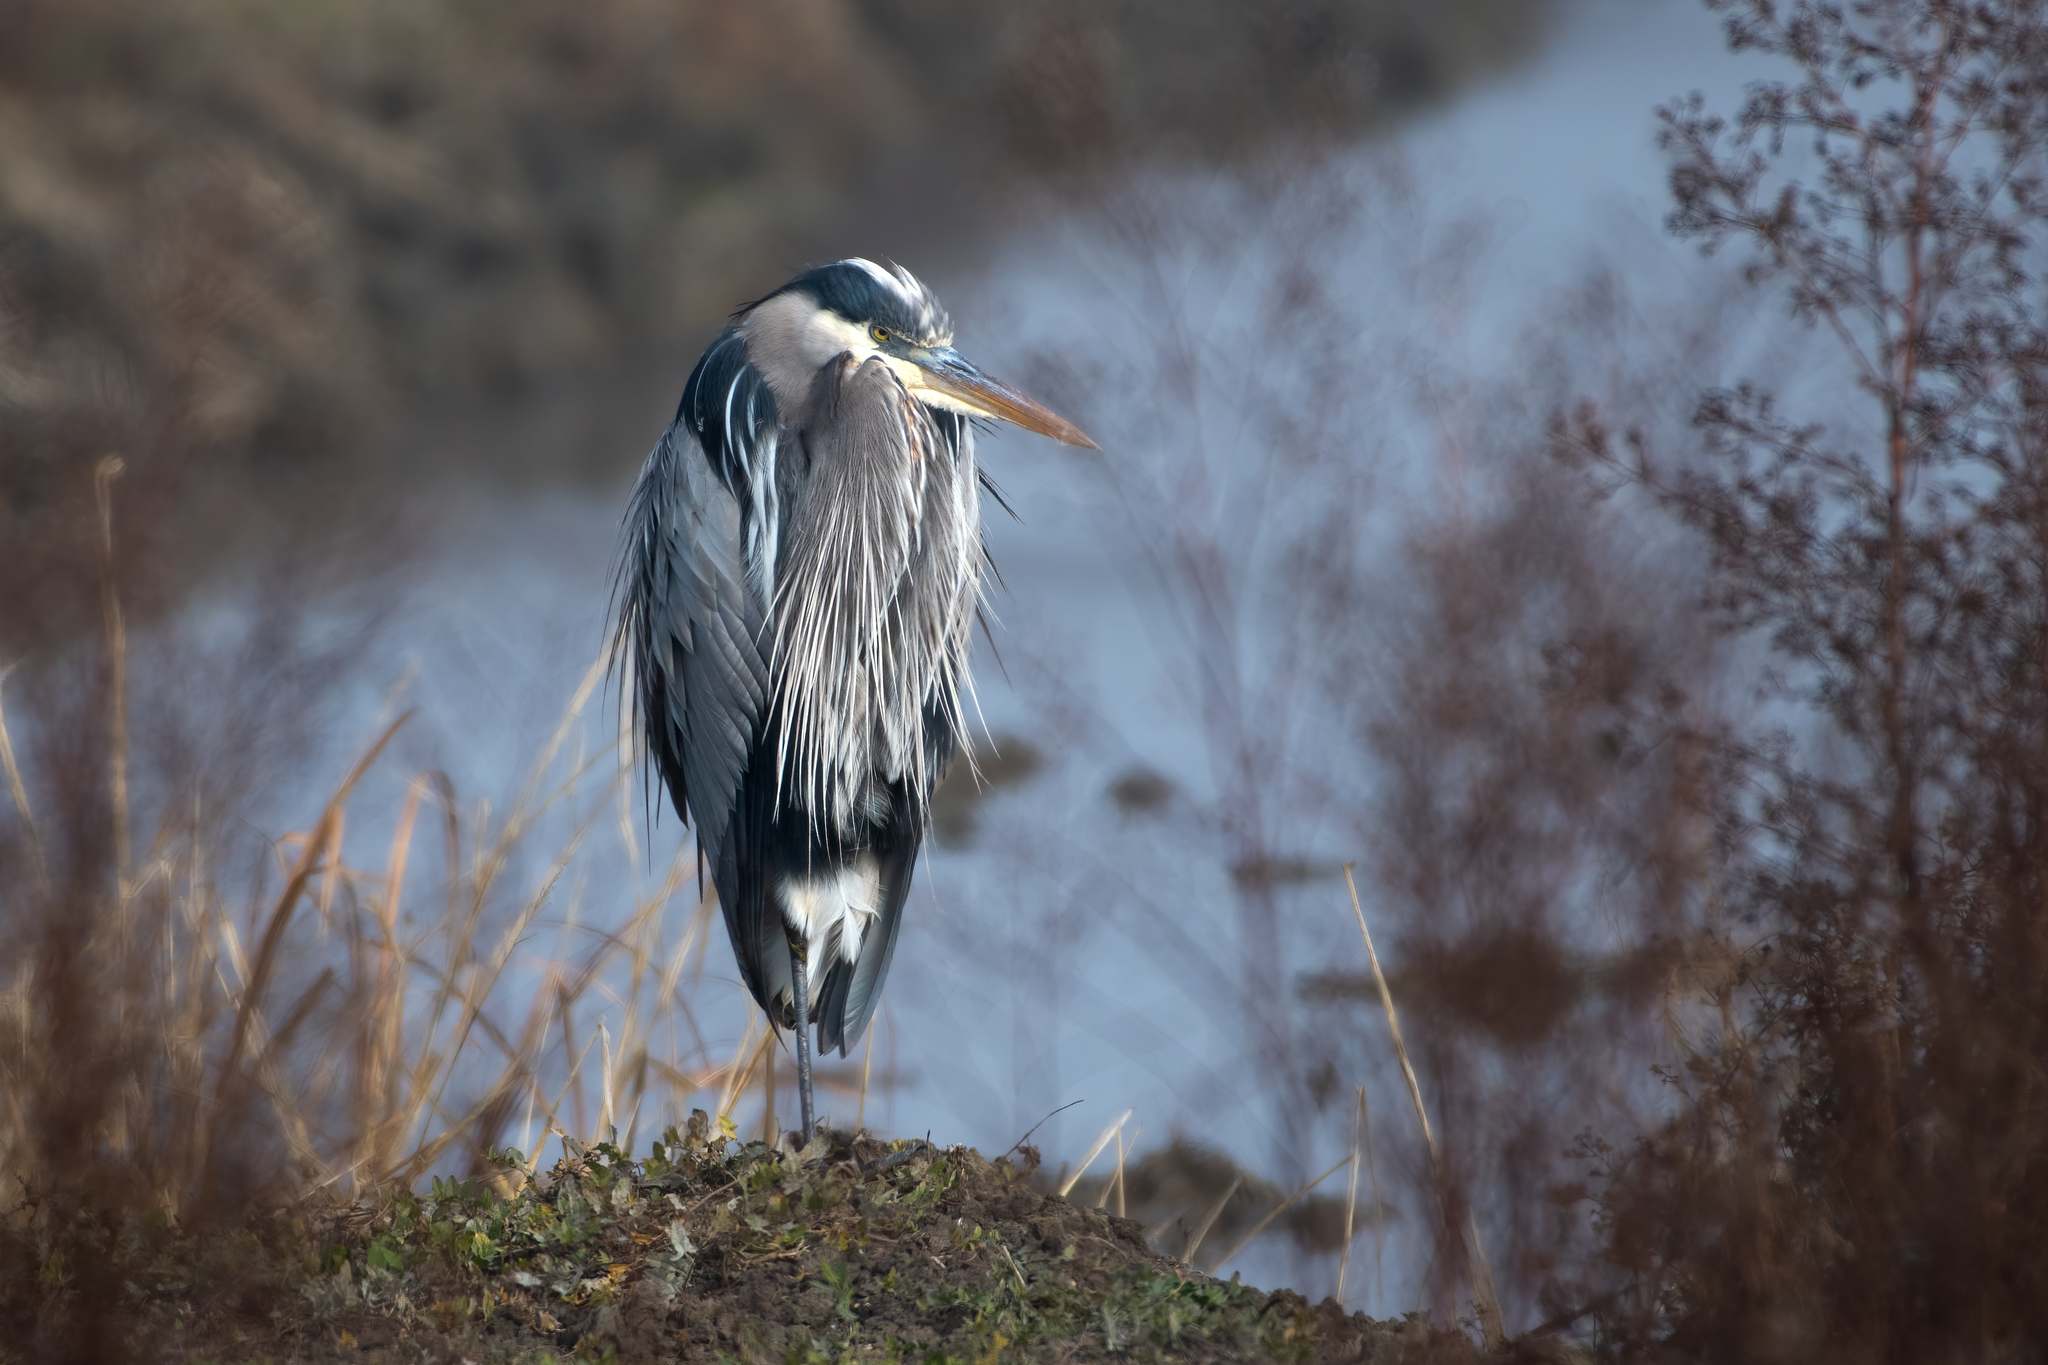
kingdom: Animalia
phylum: Chordata
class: Aves
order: Pelecaniformes
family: Ardeidae
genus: Ardea
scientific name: Ardea herodias
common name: Great blue heron
